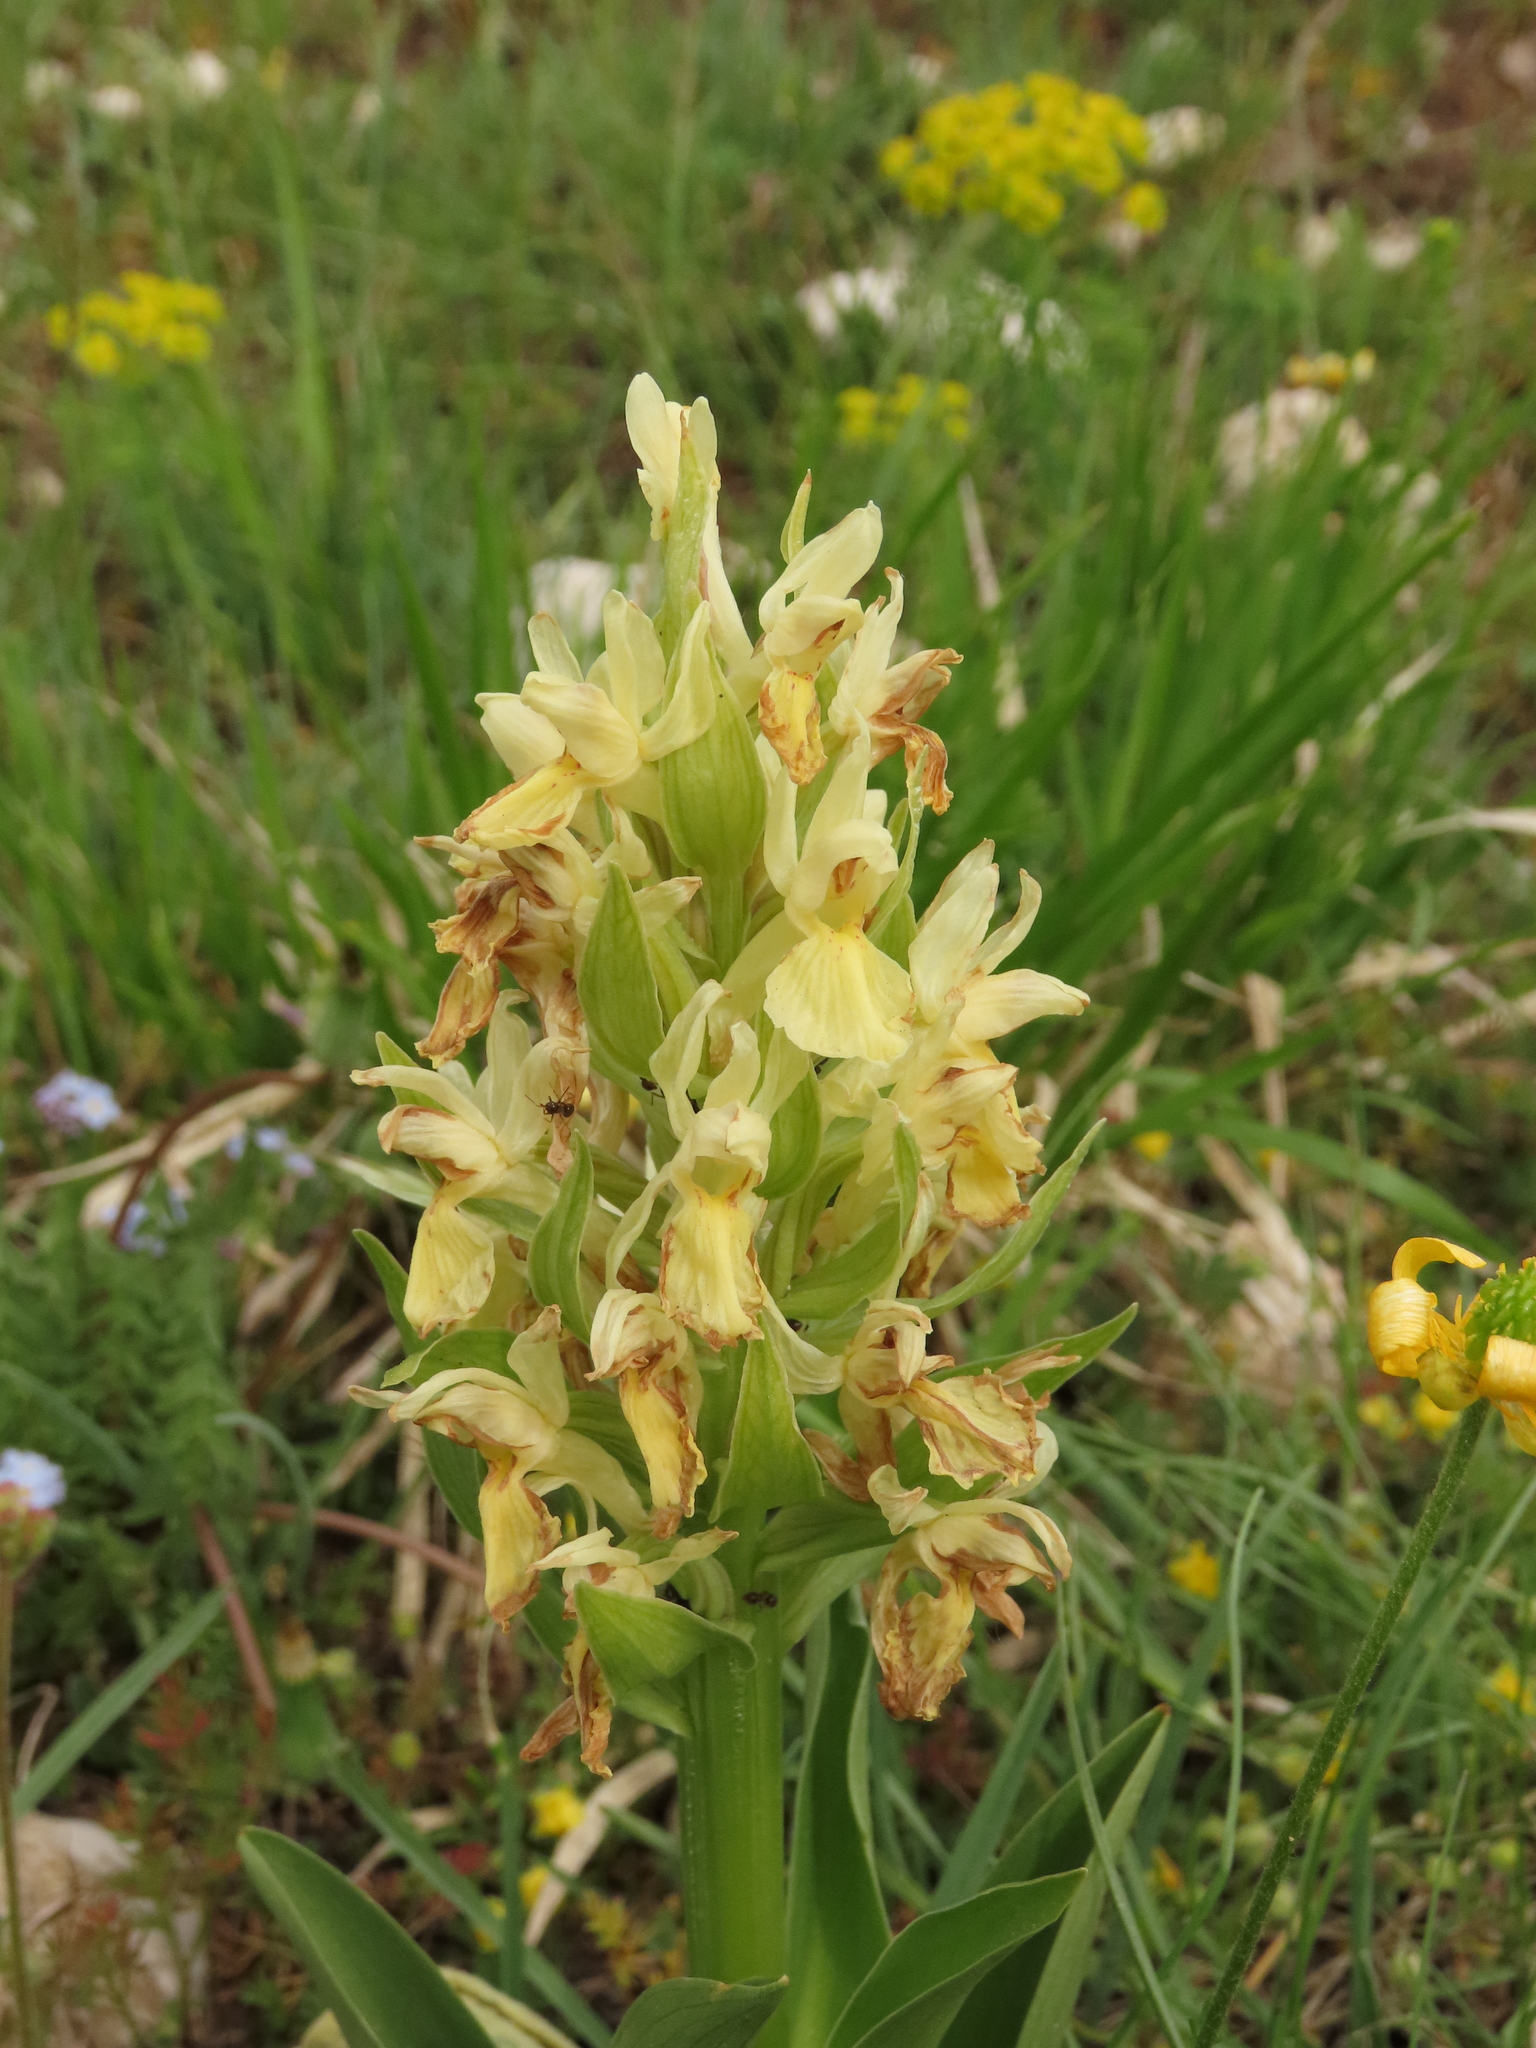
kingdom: Plantae
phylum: Tracheophyta
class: Liliopsida
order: Asparagales
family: Orchidaceae
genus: Dactylorhiza
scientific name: Dactylorhiza sambucina
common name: Elder-flowered orchid
